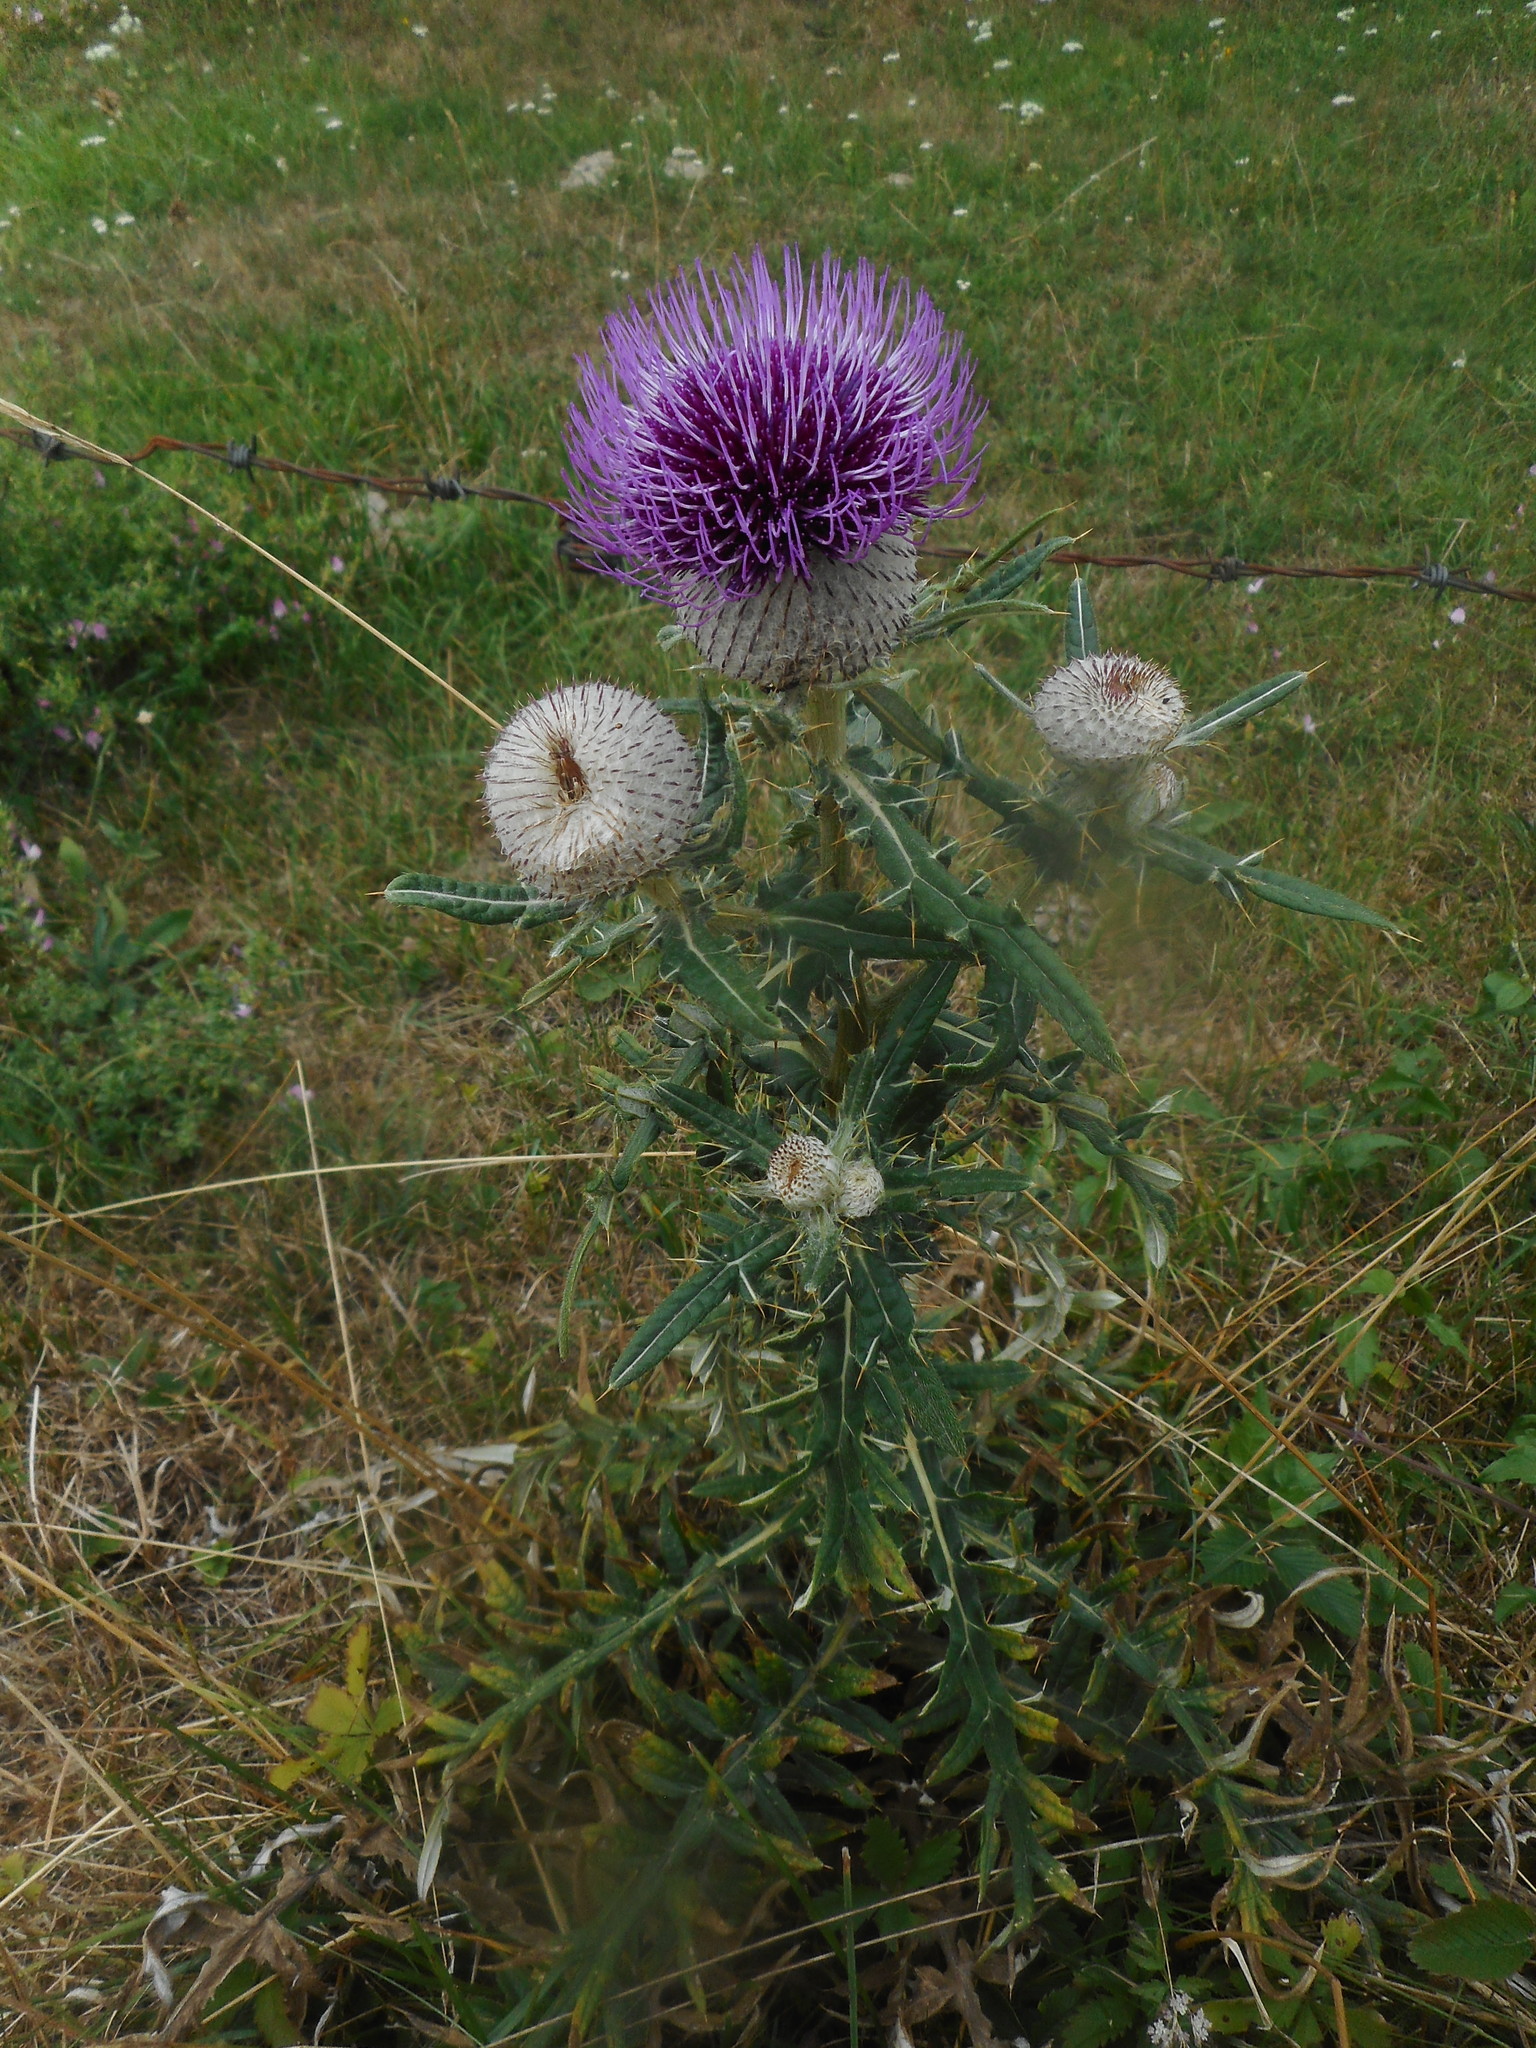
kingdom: Plantae
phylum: Tracheophyta
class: Magnoliopsida
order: Asterales
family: Asteraceae
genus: Lophiolepis
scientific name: Lophiolepis eriophora
